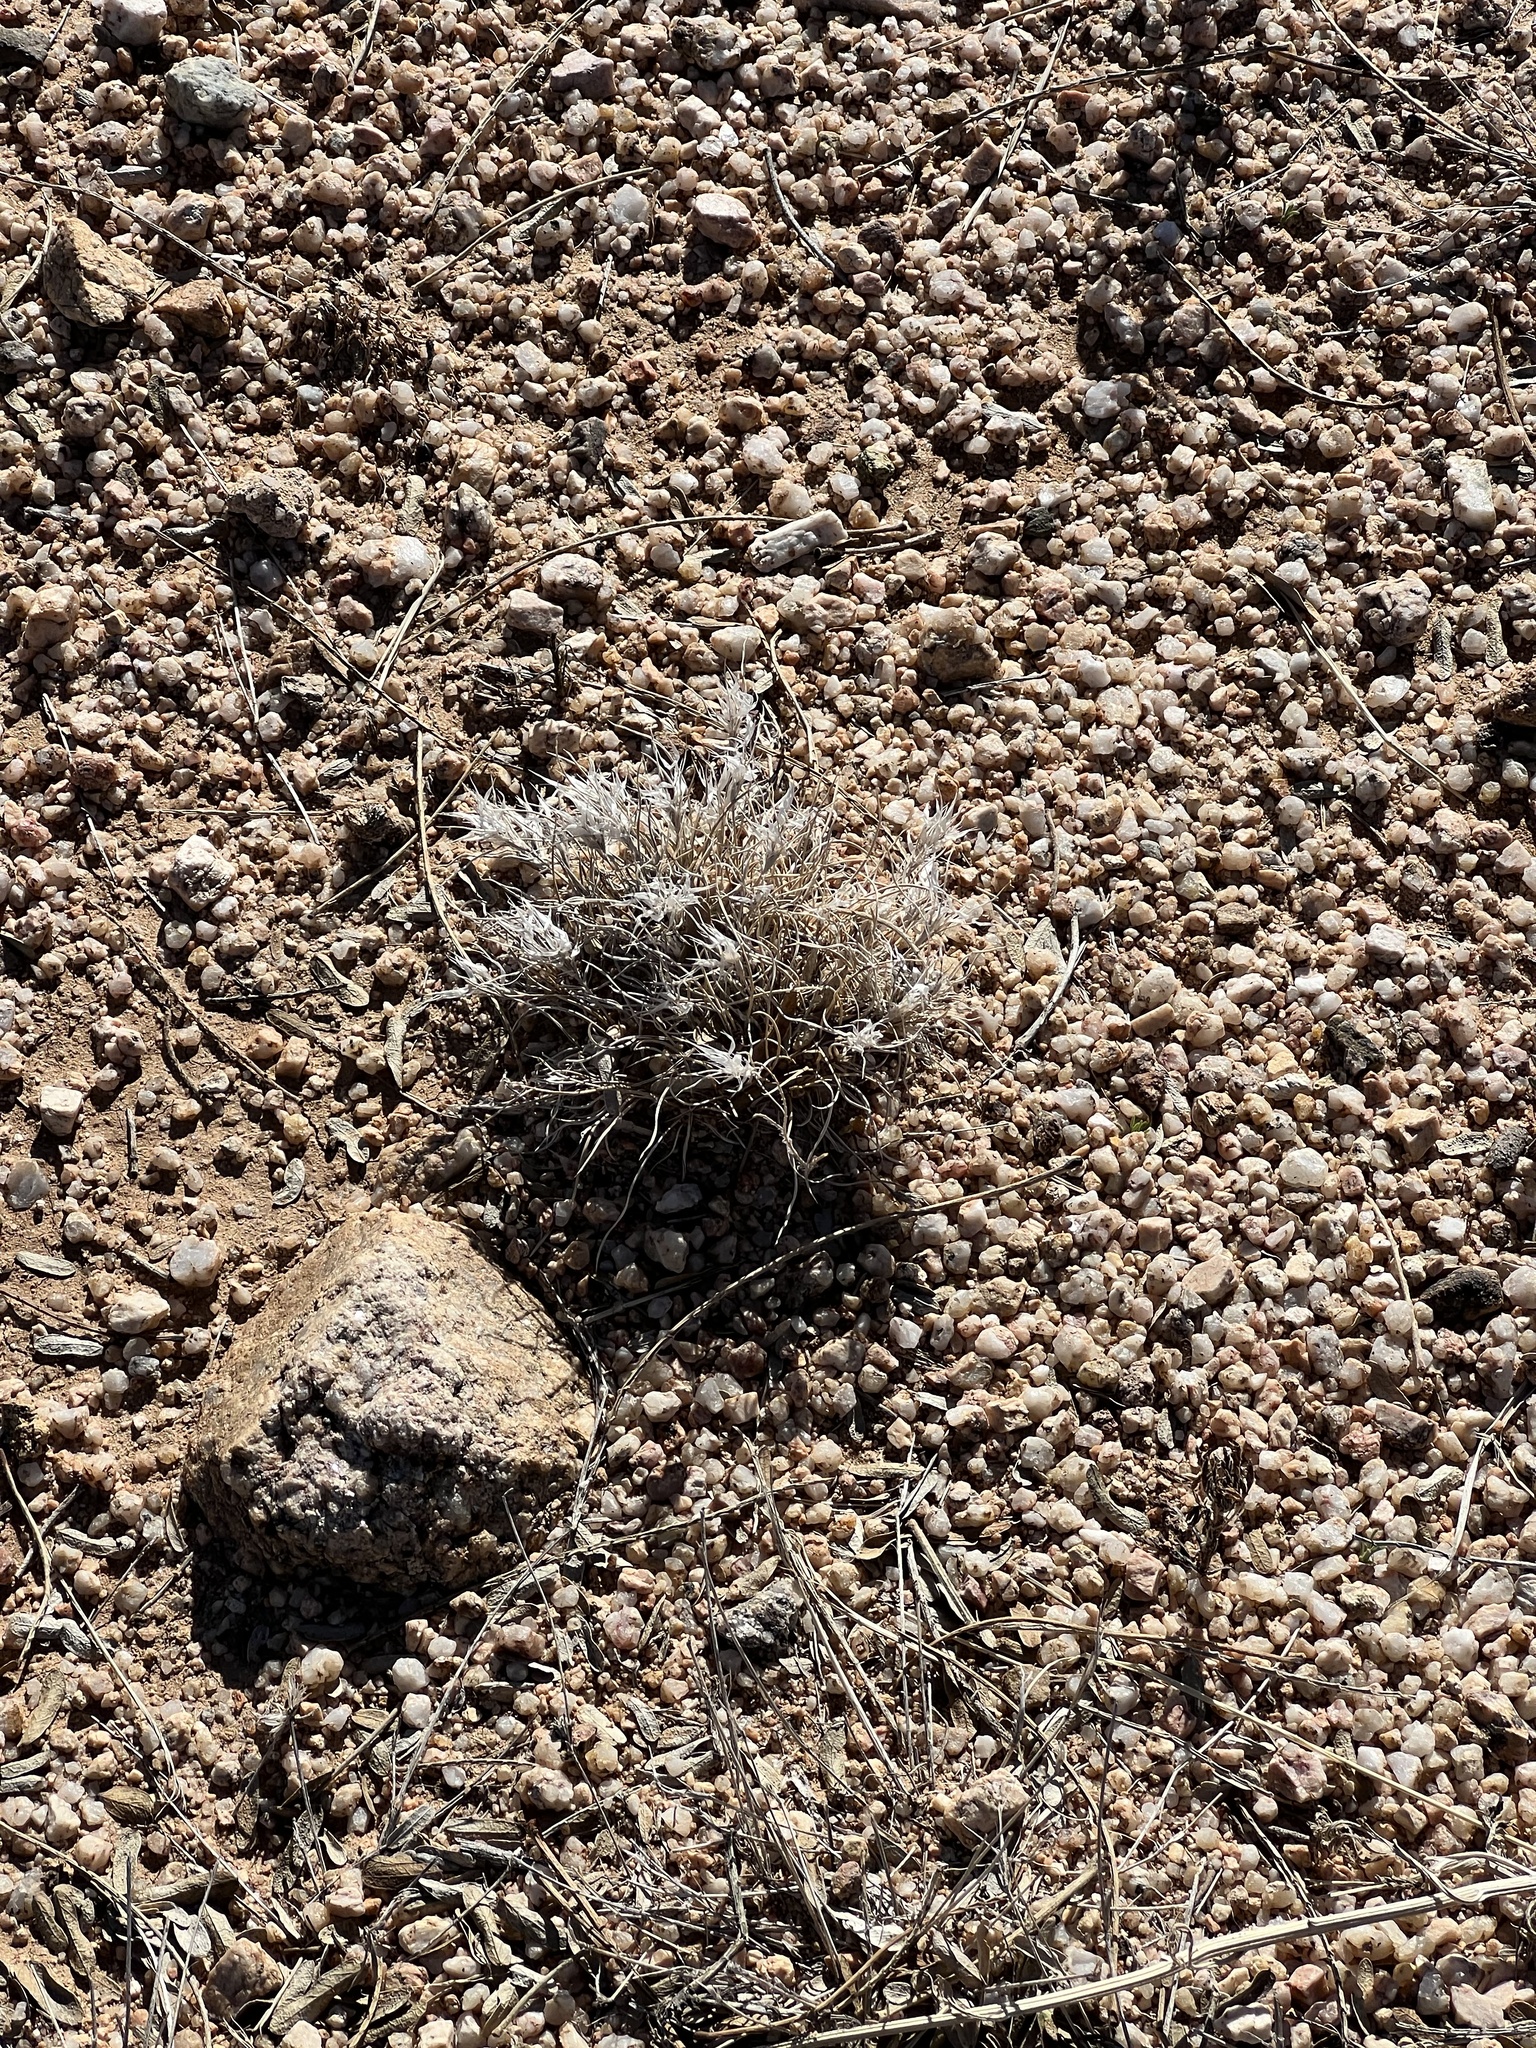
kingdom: Plantae
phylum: Tracheophyta
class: Liliopsida
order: Poales
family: Poaceae
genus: Dasyochloa
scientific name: Dasyochloa pulchella
